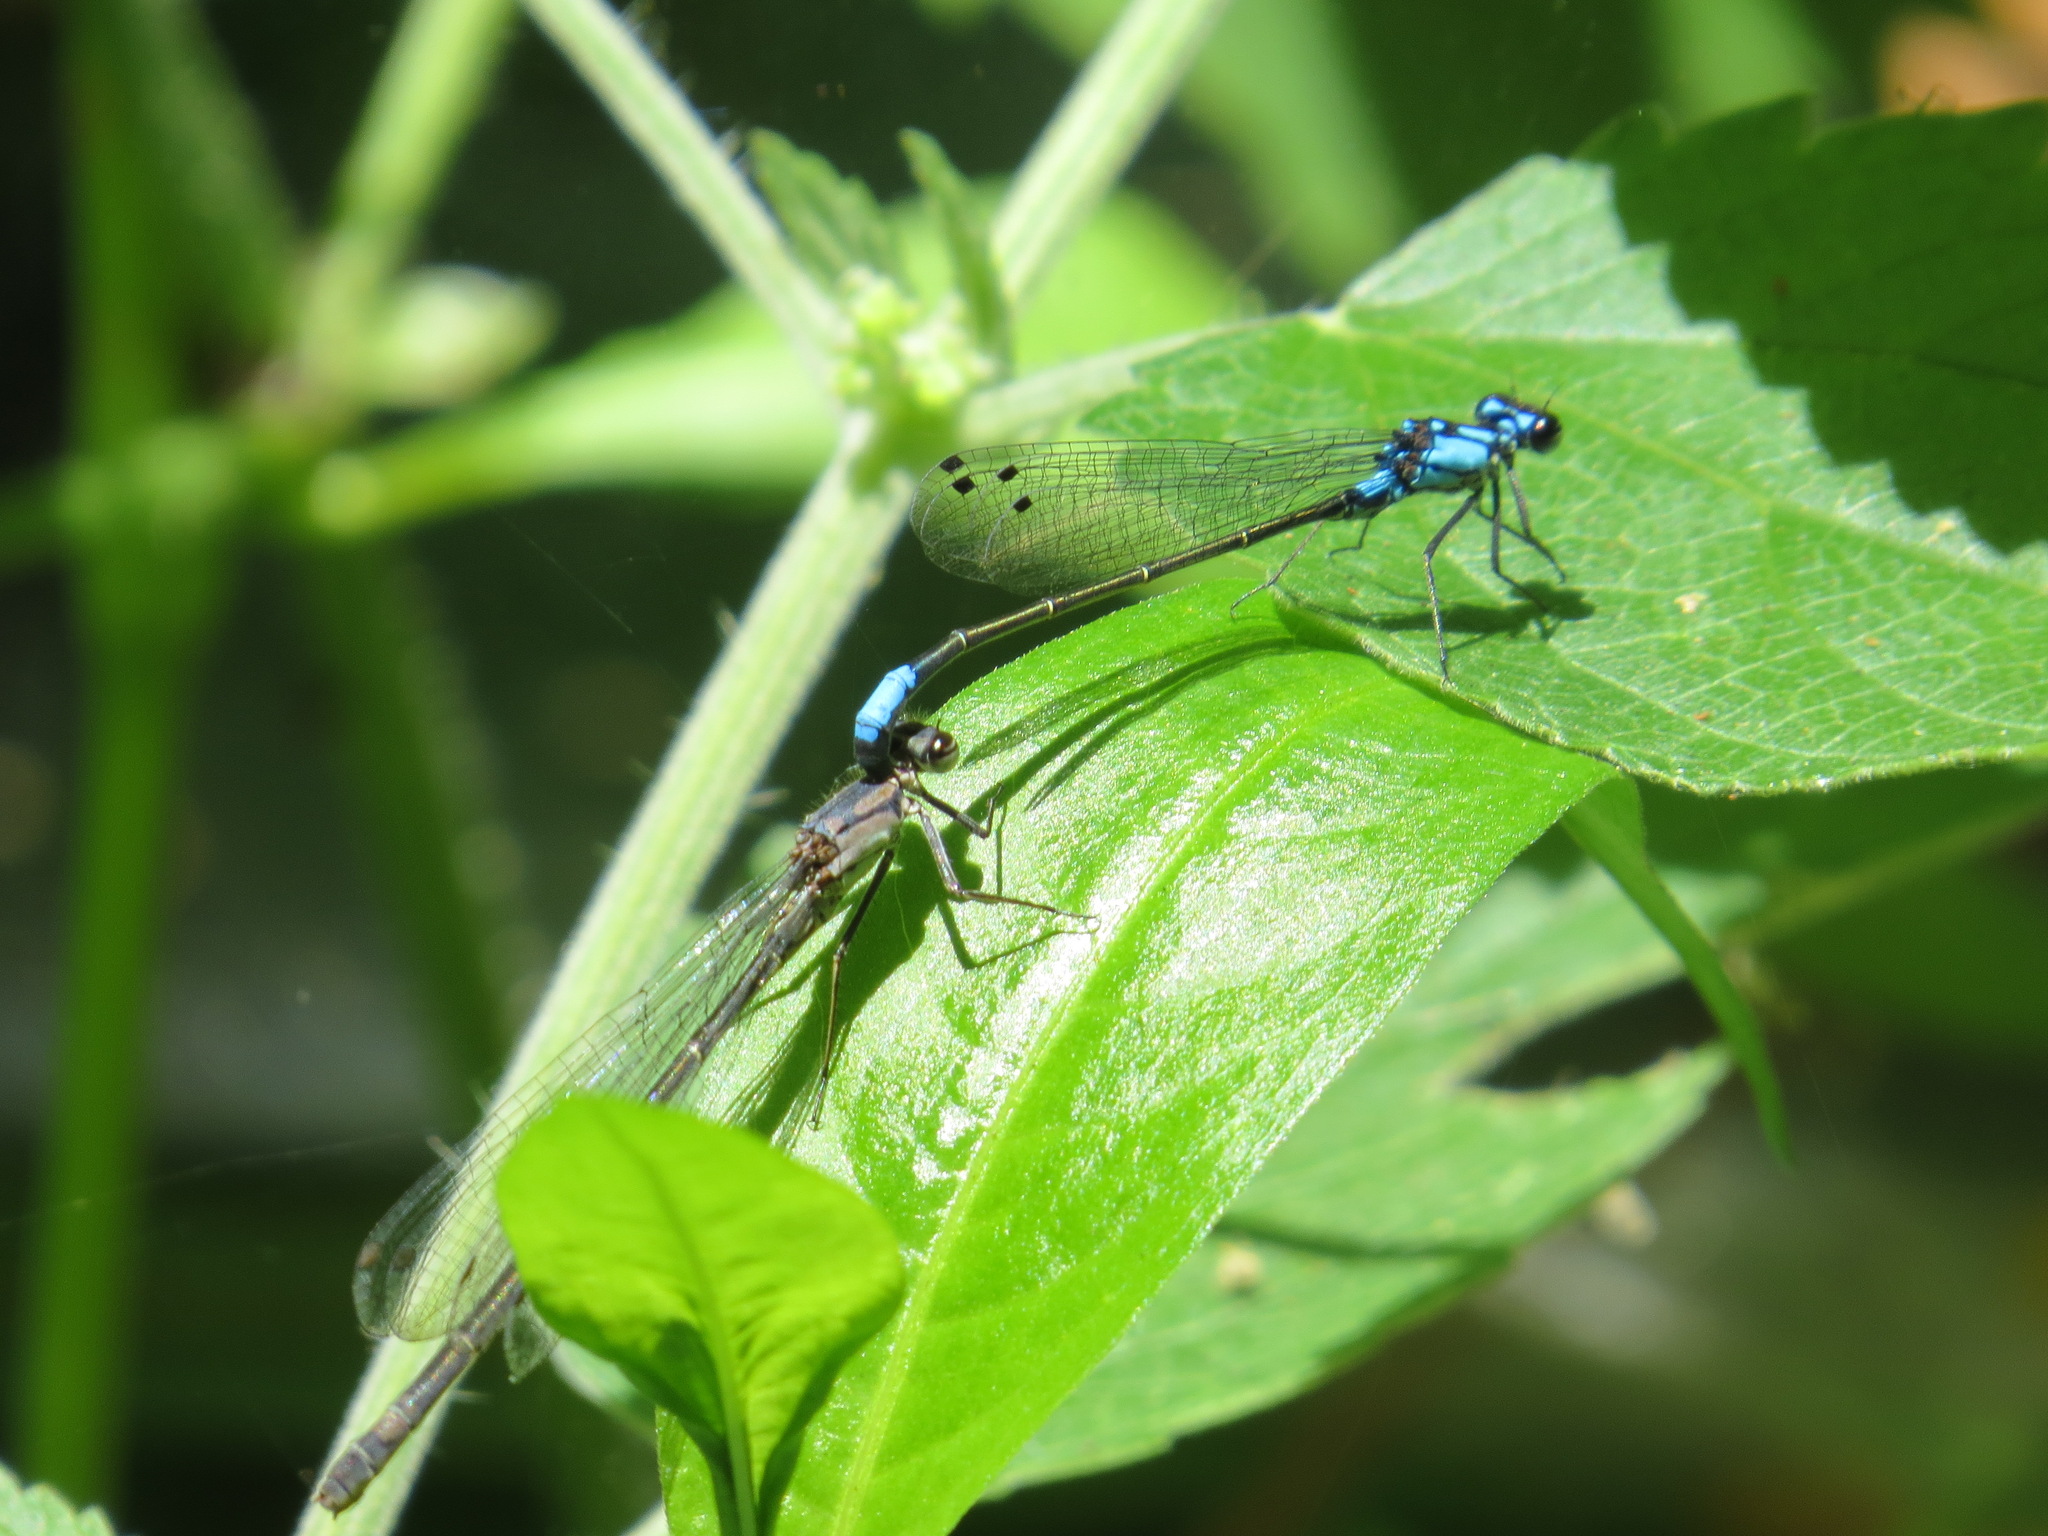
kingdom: Animalia
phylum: Arthropoda
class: Insecta
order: Odonata
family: Coenagrionidae
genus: Zoniagrion
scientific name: Zoniagrion exclamationis
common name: Exclamation damsel
